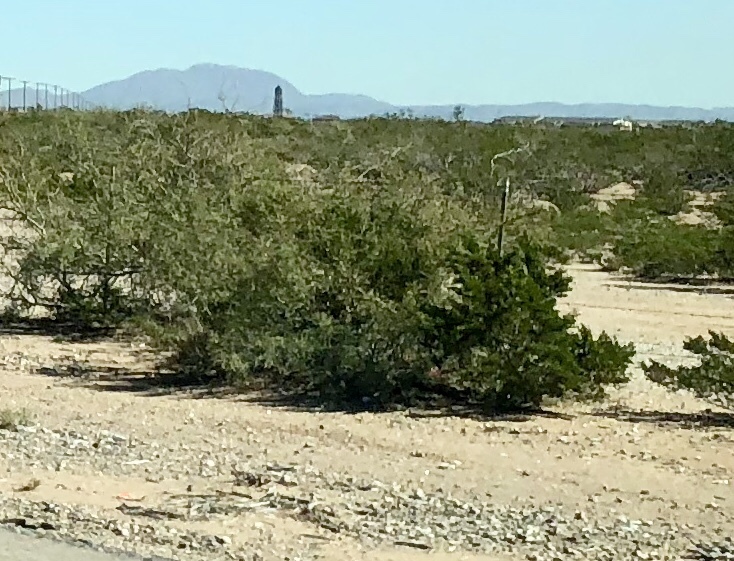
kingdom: Plantae
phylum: Tracheophyta
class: Magnoliopsida
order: Zygophyllales
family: Zygophyllaceae
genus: Larrea
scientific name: Larrea tridentata
